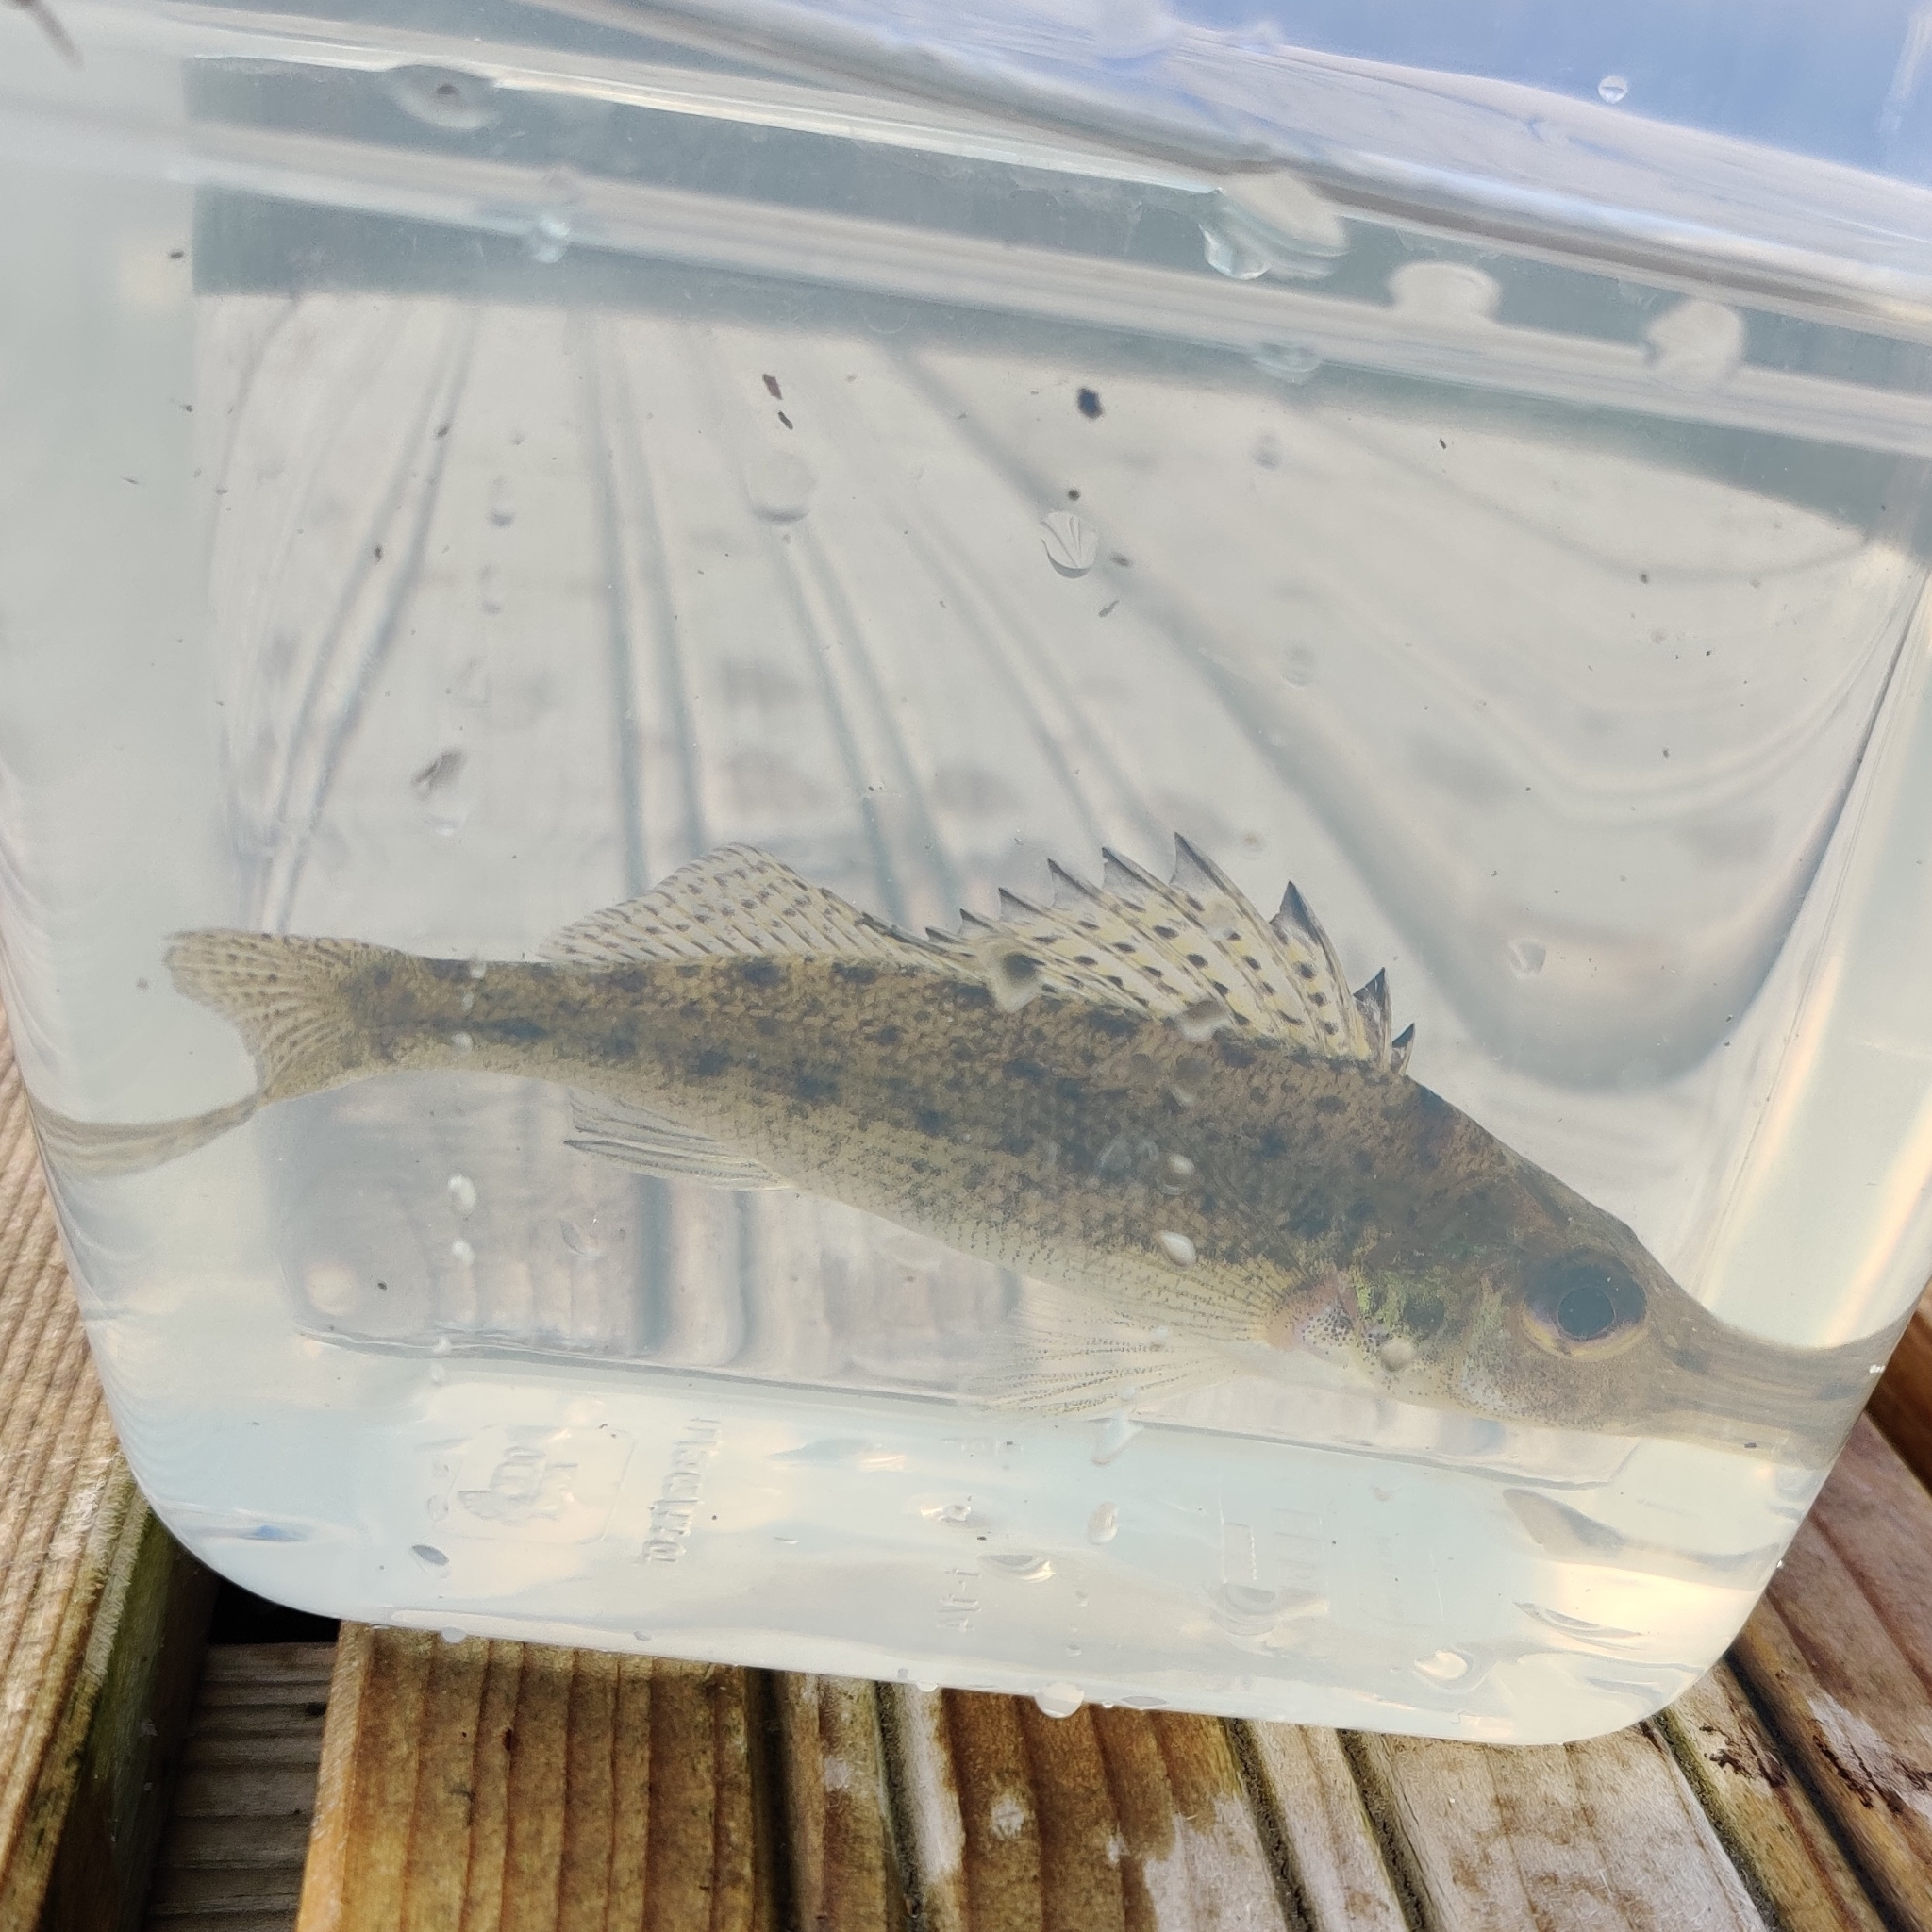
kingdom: Animalia
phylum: Chordata
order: Perciformes
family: Percidae
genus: Gymnocephalus
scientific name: Gymnocephalus cernua
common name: Ruffe
